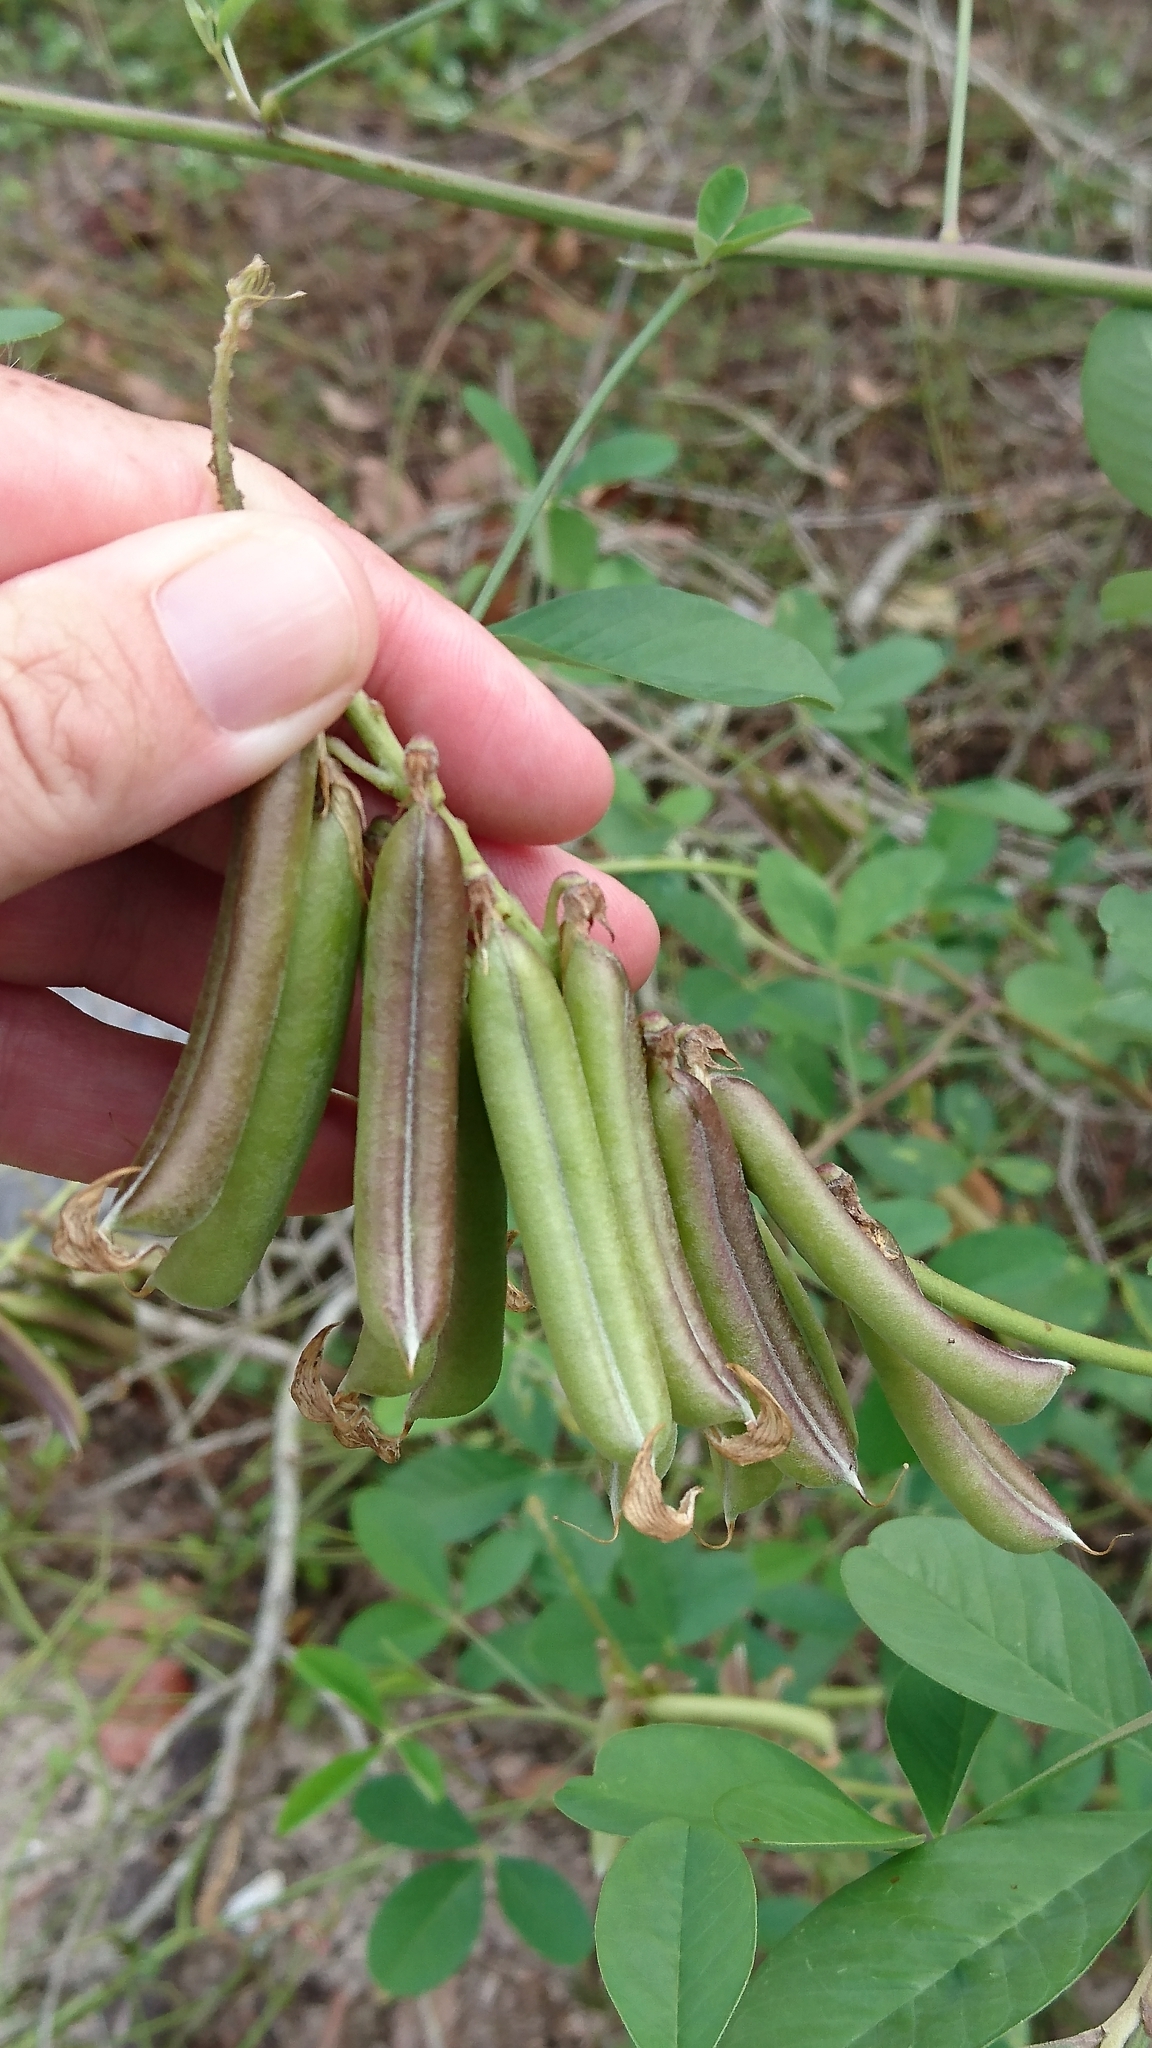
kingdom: Plantae
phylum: Tracheophyta
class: Magnoliopsida
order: Fabales
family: Fabaceae
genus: Crotalaria
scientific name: Crotalaria pallida
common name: Smooth rattlebox
